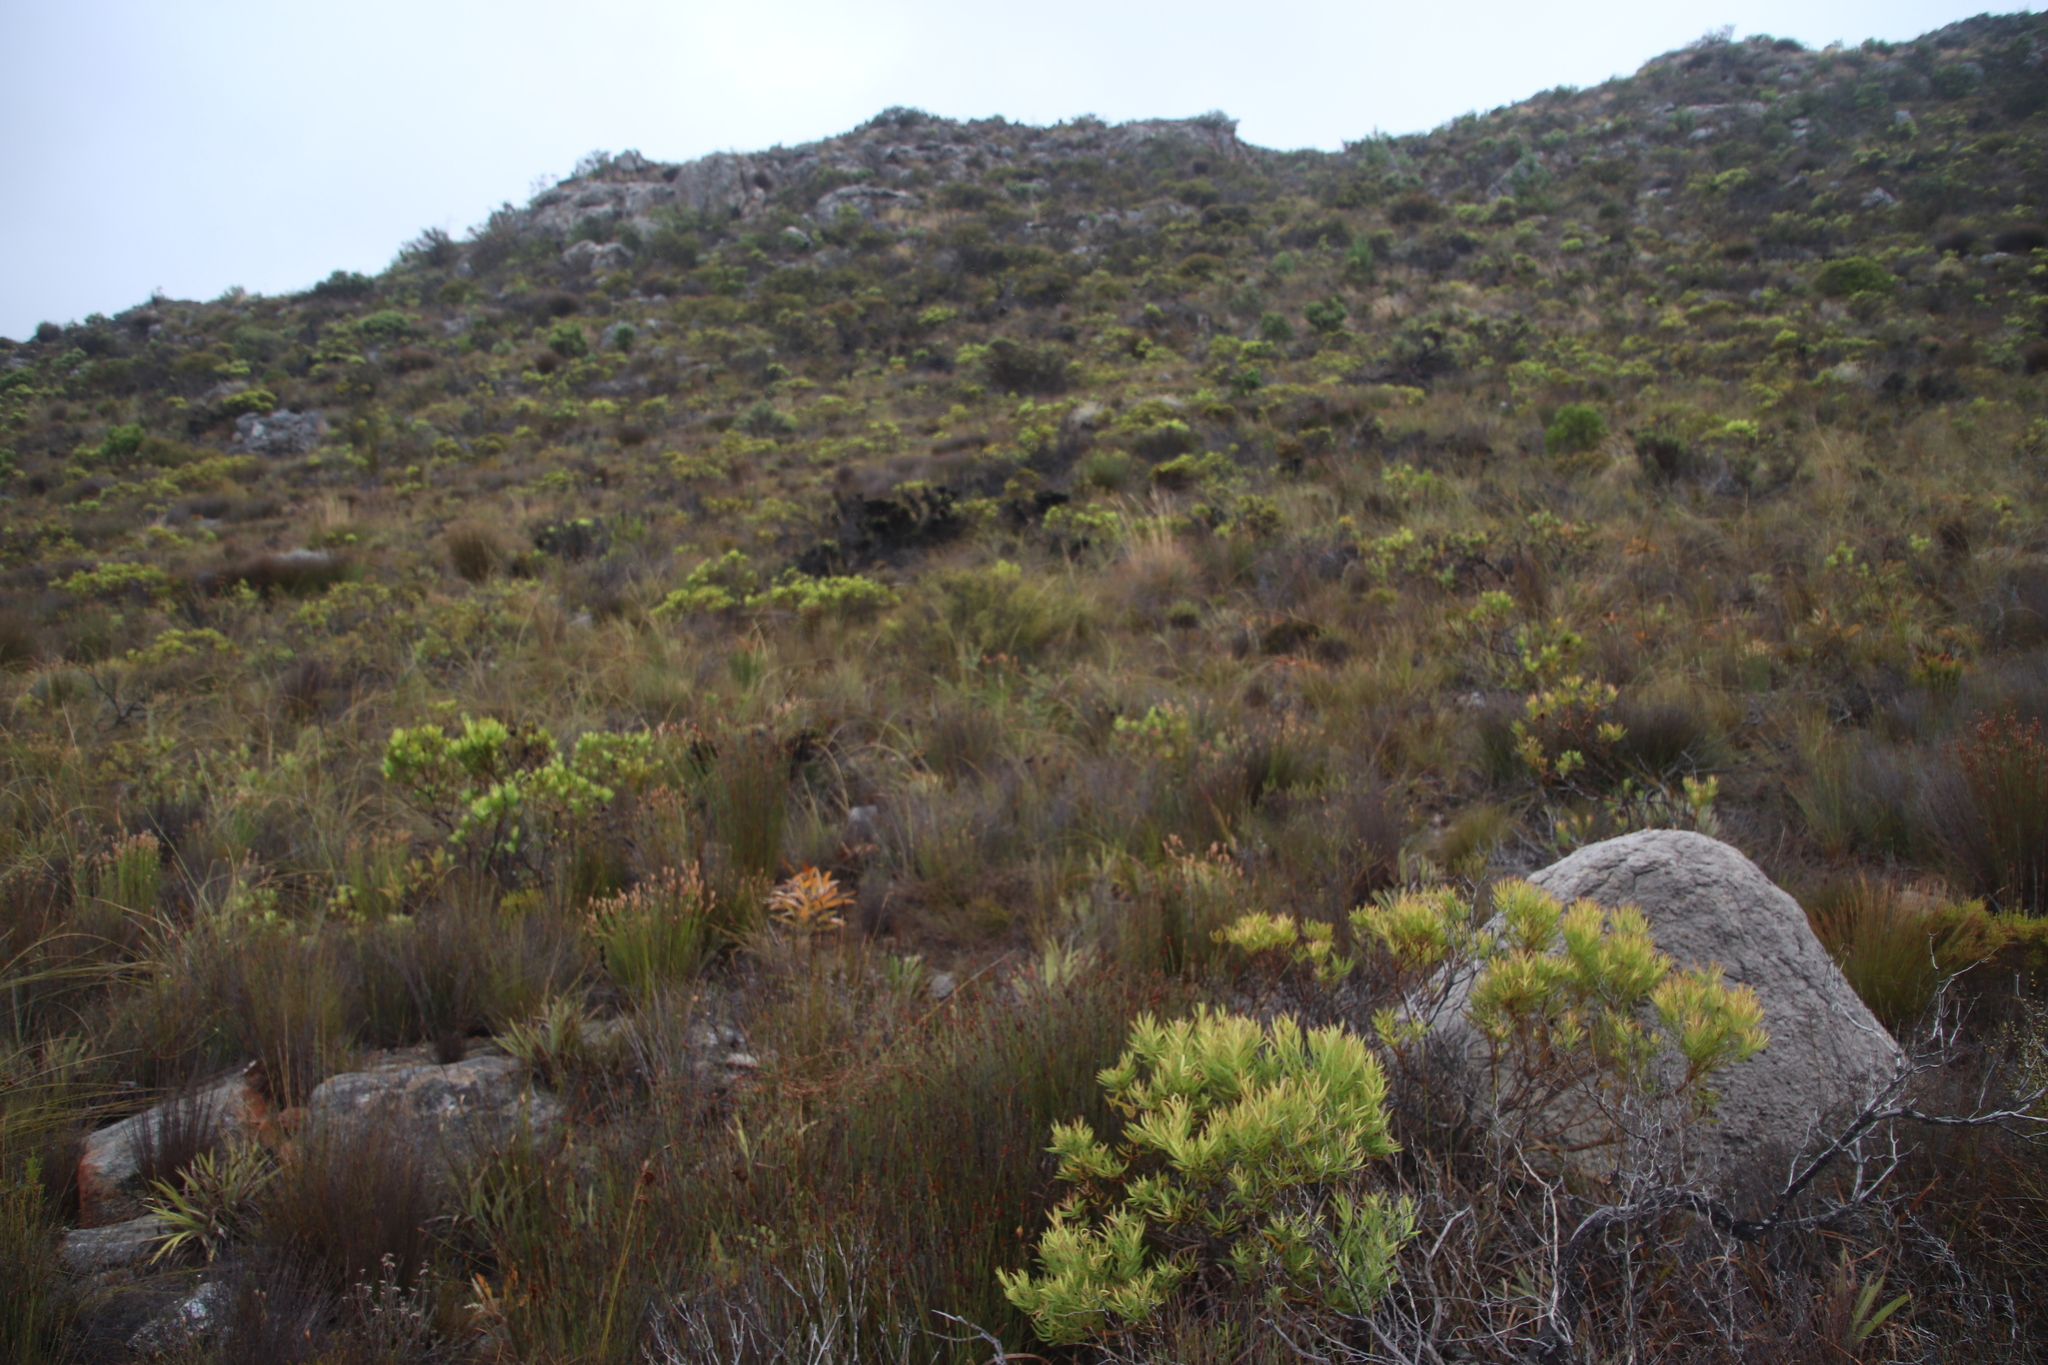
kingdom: Plantae
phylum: Tracheophyta
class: Magnoliopsida
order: Proteales
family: Proteaceae
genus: Leucadendron
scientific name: Leucadendron salignum
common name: Common sunshine conebush
